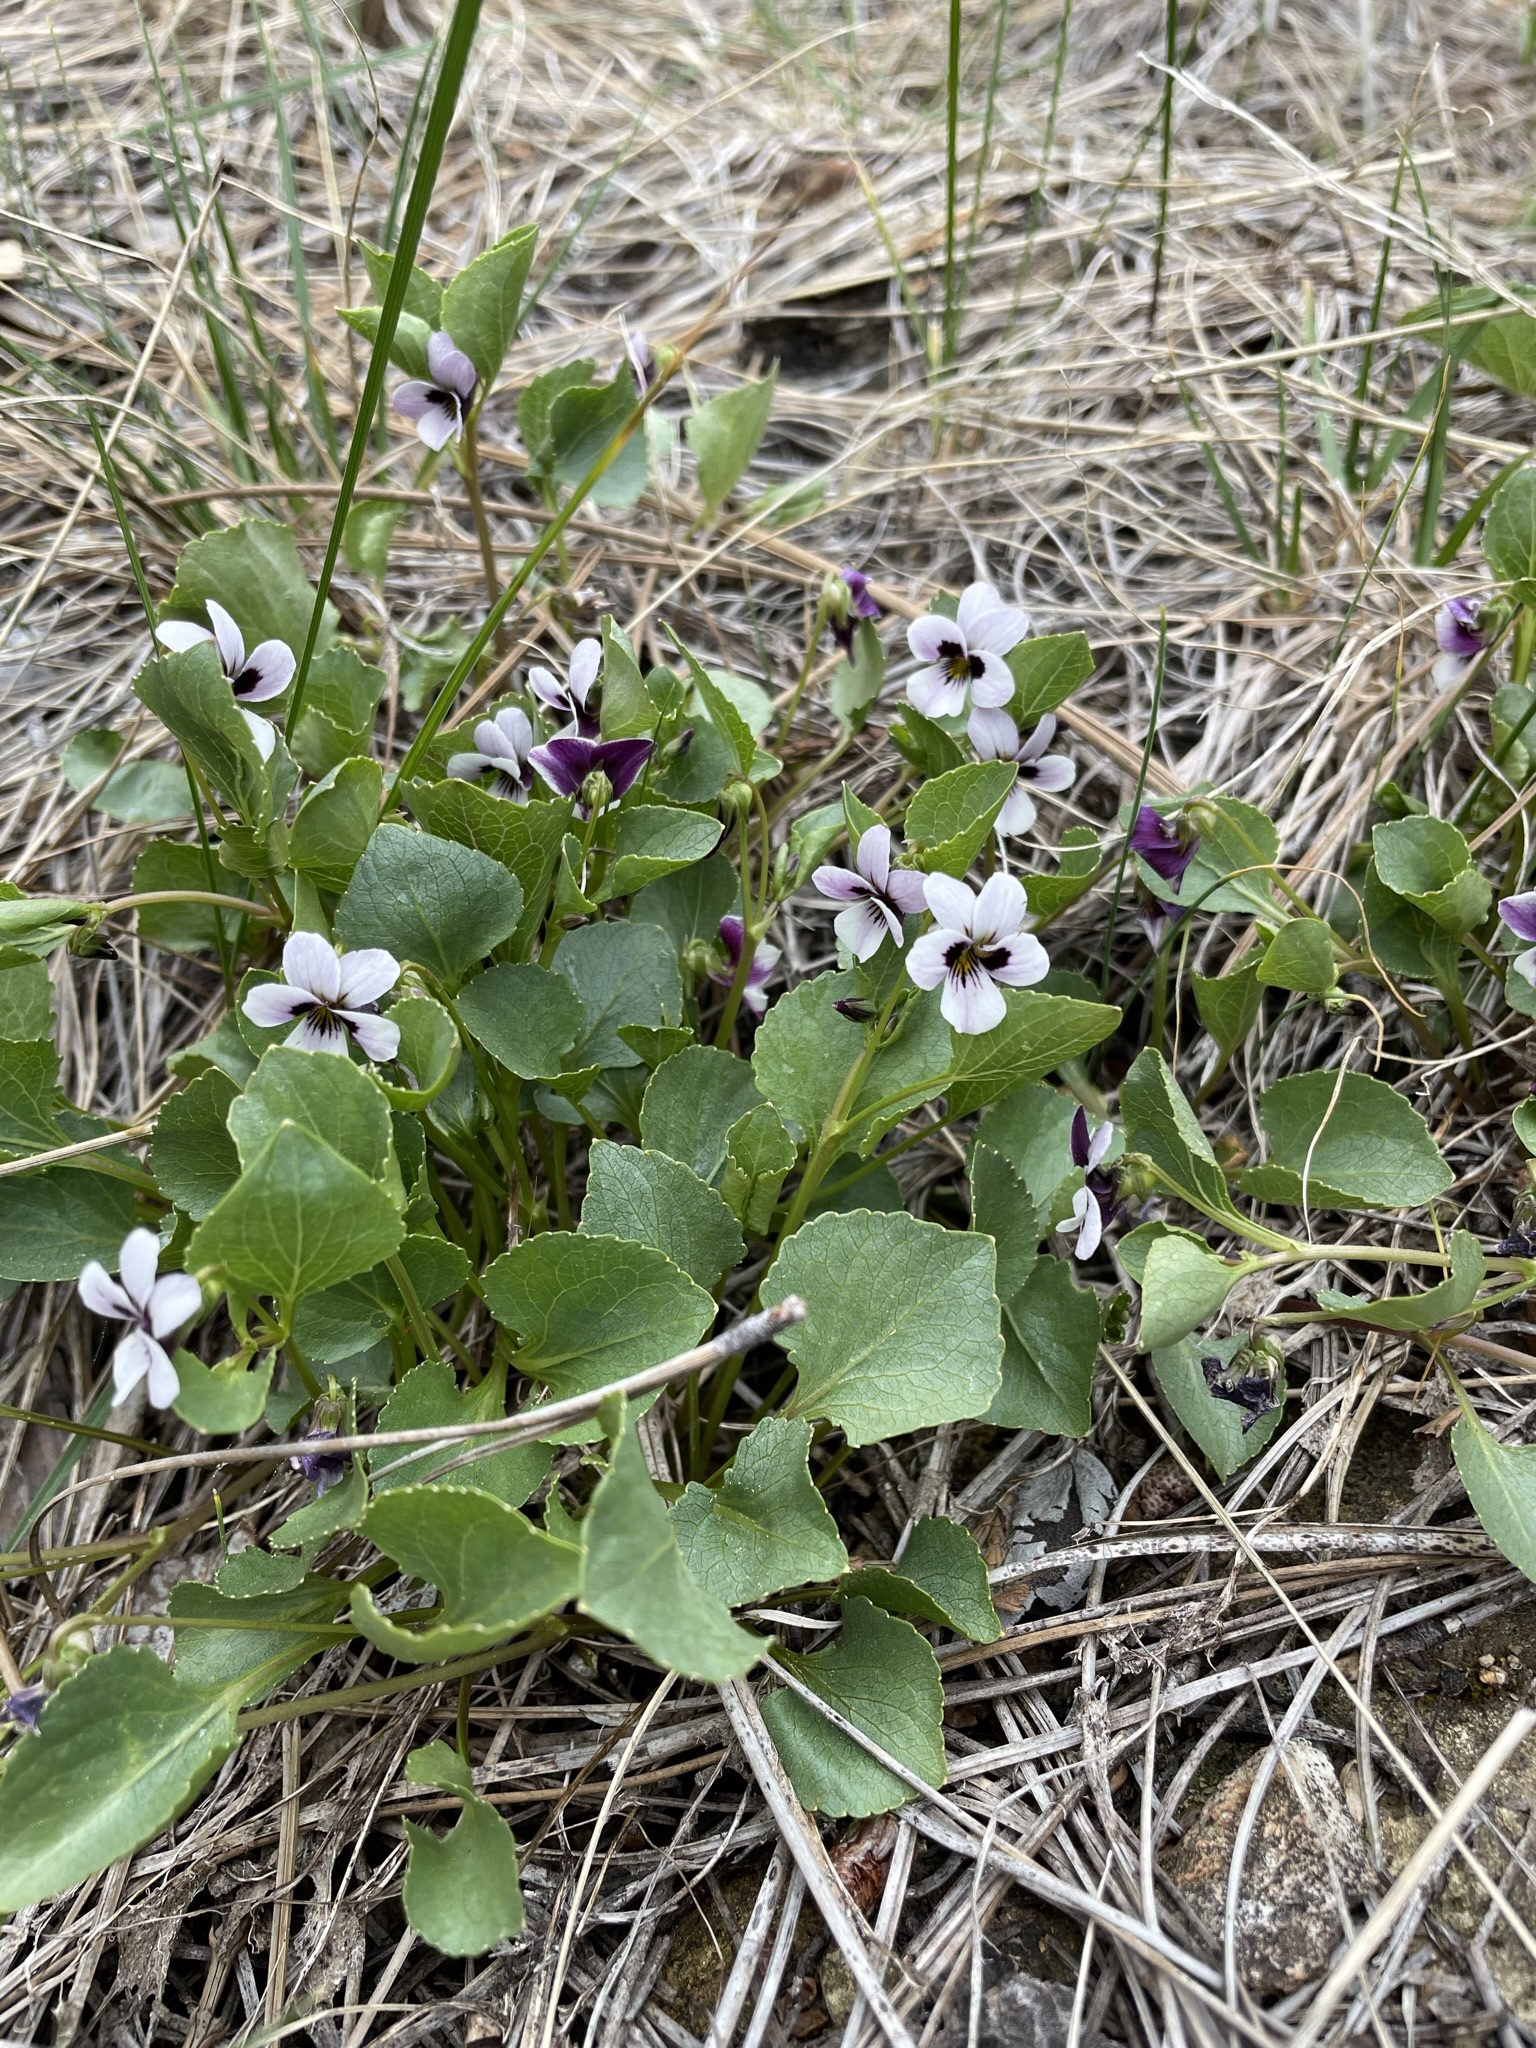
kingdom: Plantae
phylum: Tracheophyta
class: Magnoliopsida
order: Malpighiales
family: Violaceae
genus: Viola
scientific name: Viola cuneata
